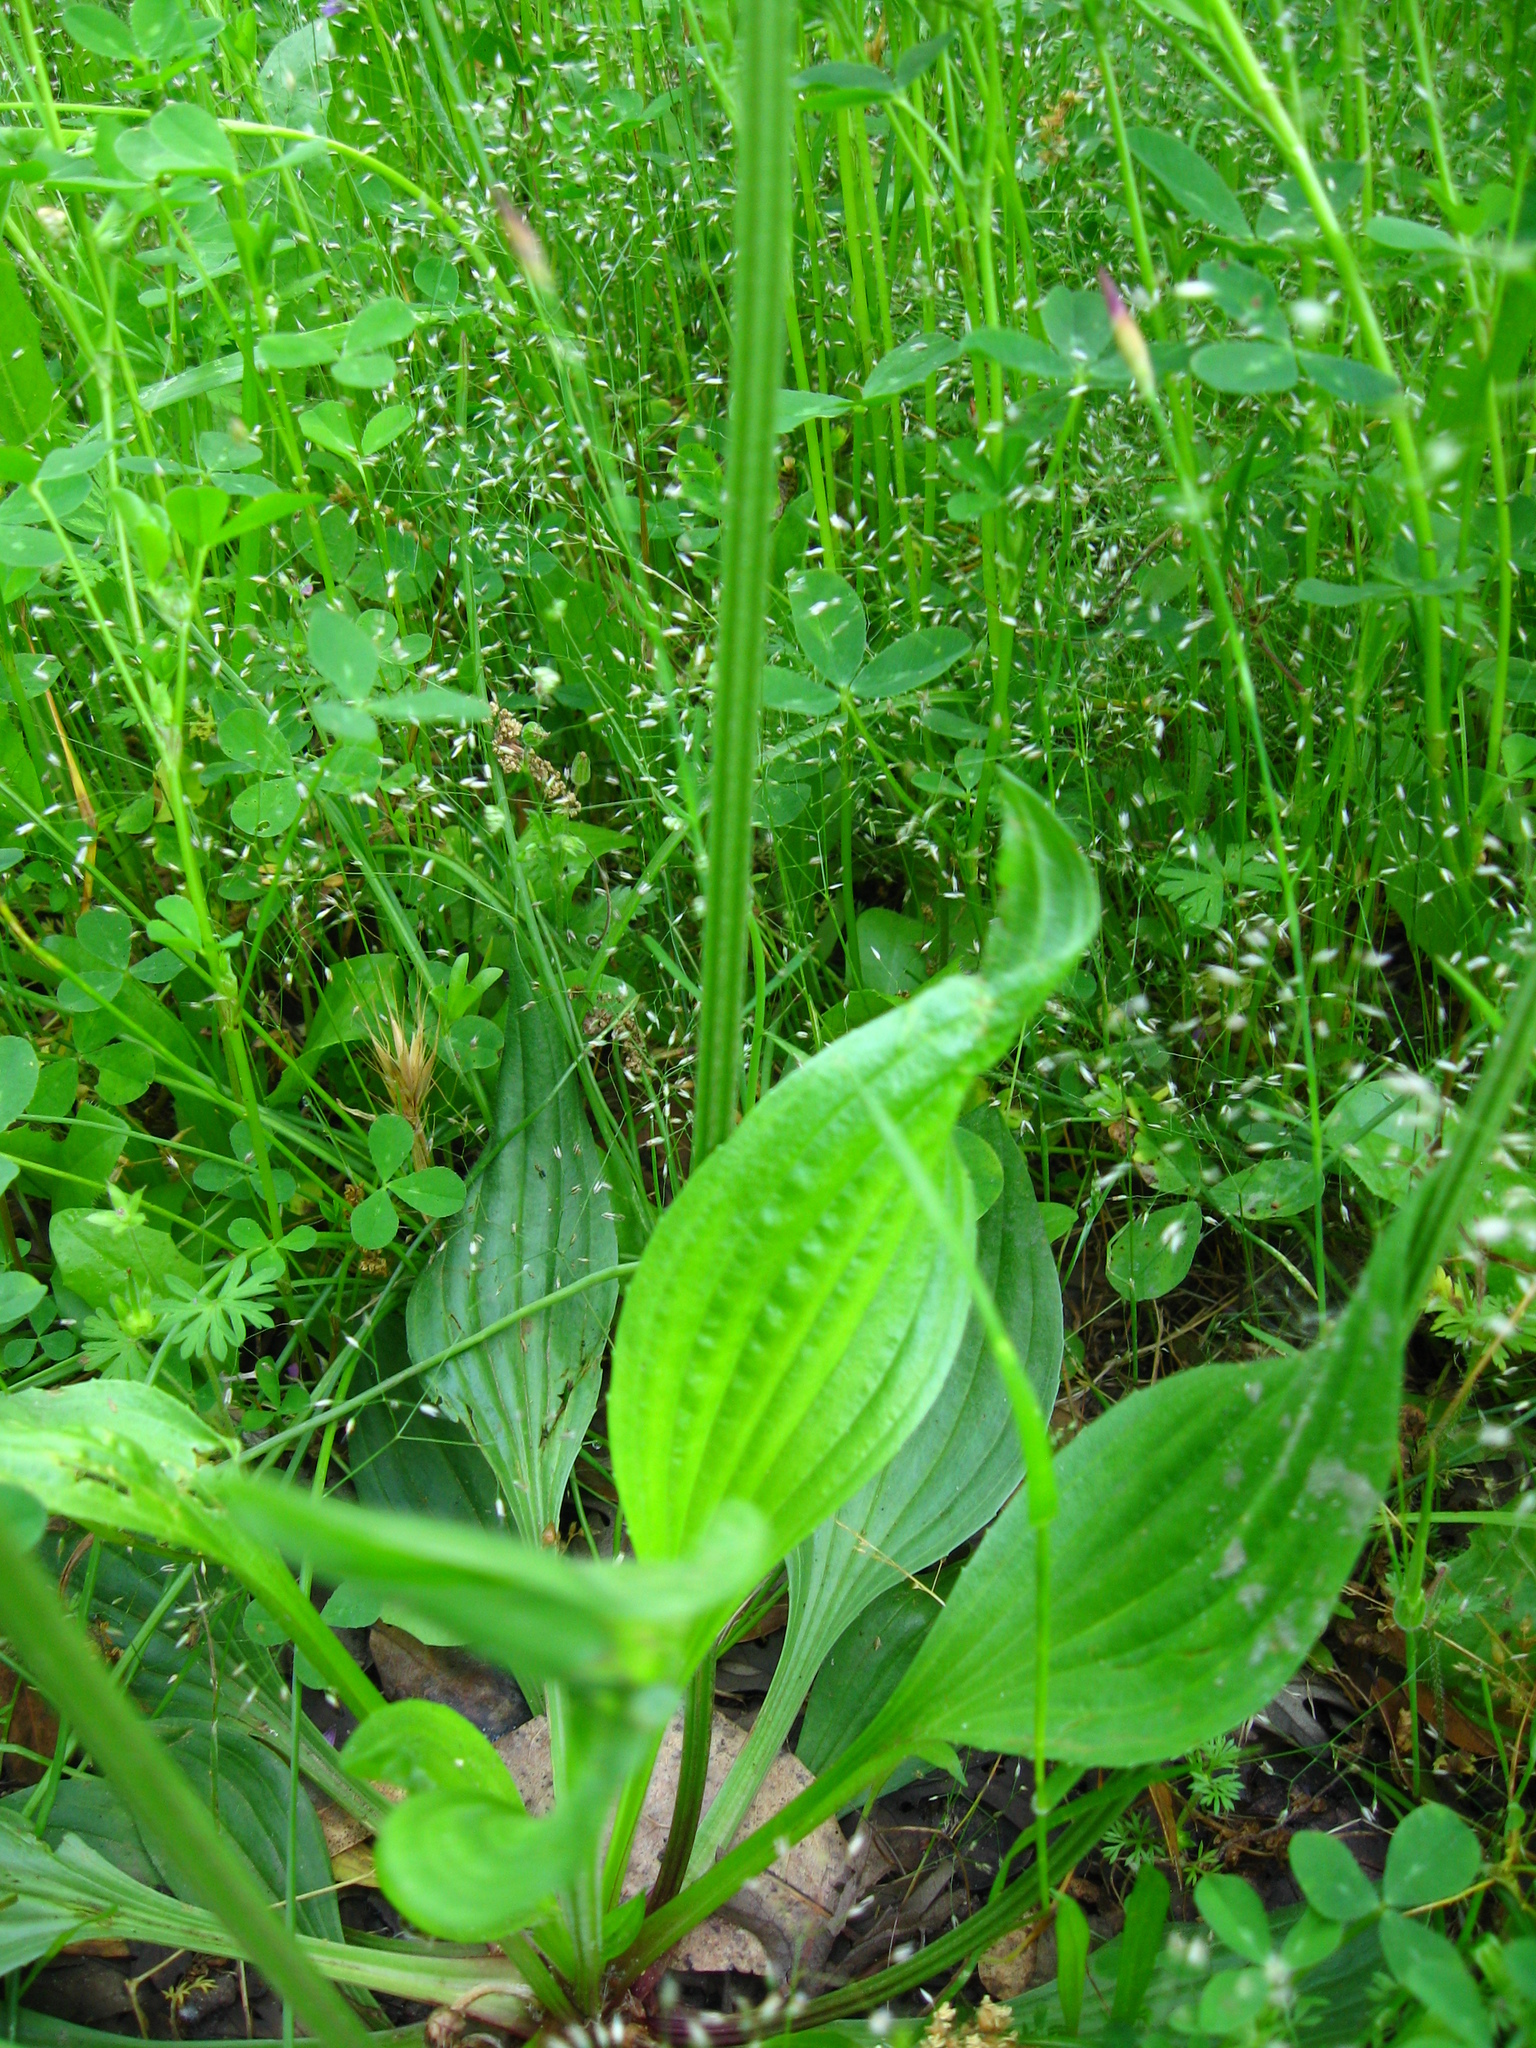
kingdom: Plantae
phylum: Tracheophyta
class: Magnoliopsida
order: Lamiales
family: Plantaginaceae
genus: Plantago
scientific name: Plantago lanceolata
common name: Ribwort plantain
